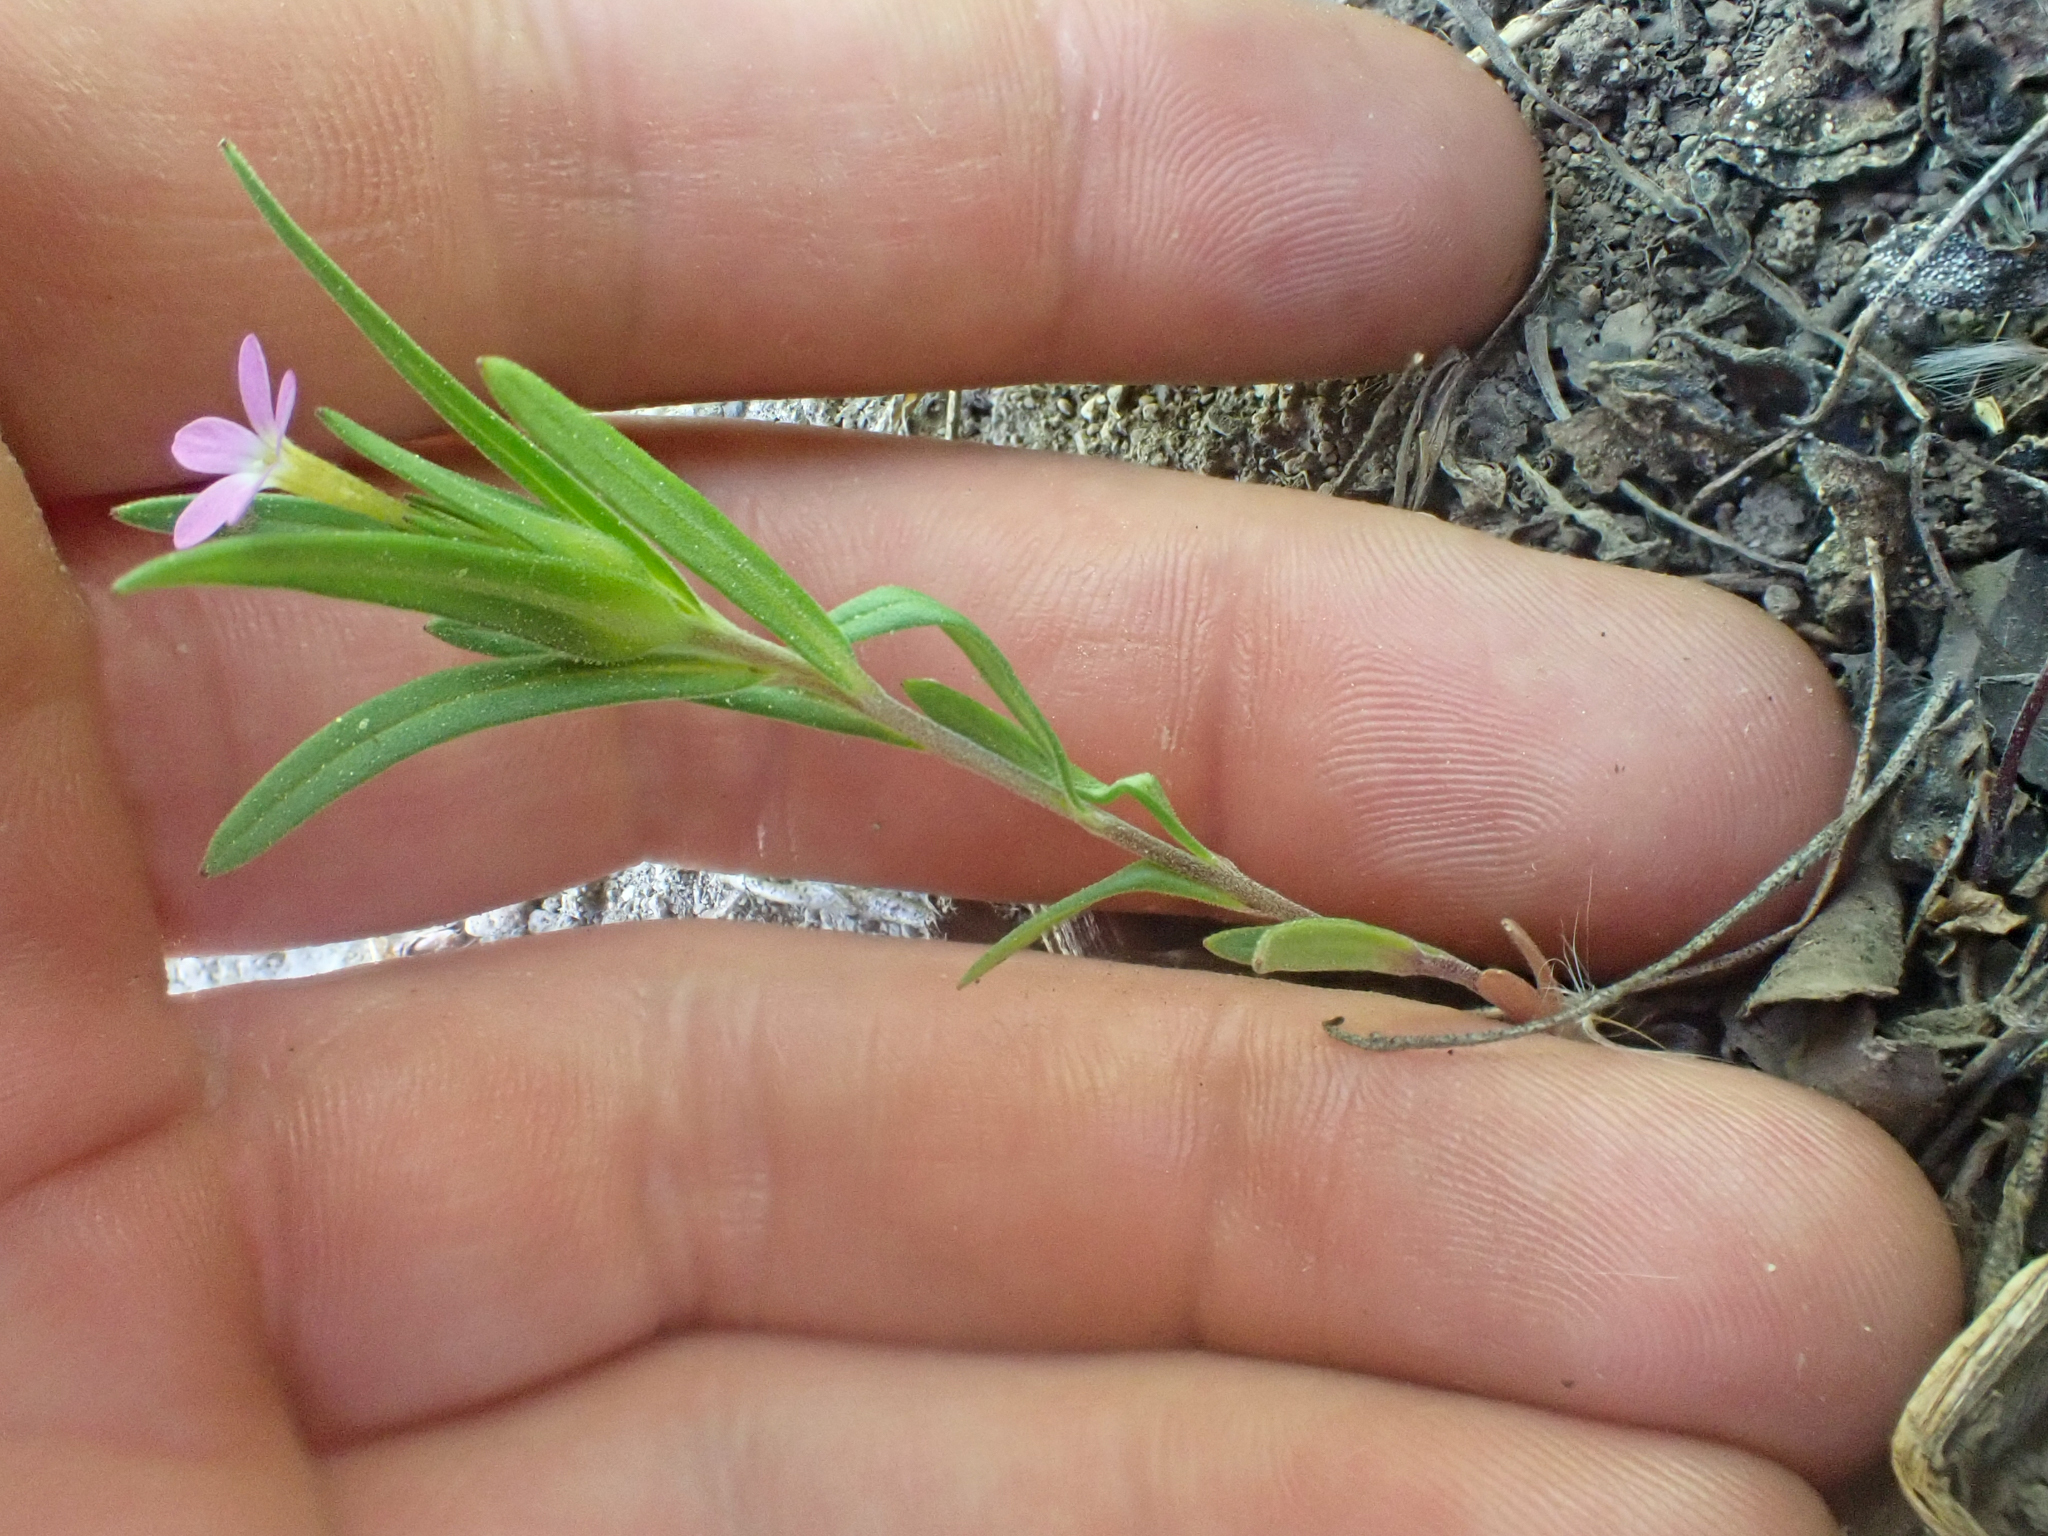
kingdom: Plantae
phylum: Tracheophyta
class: Magnoliopsida
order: Ericales
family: Polemoniaceae
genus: Collomia
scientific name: Collomia linearis
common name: Tiny trumpet
